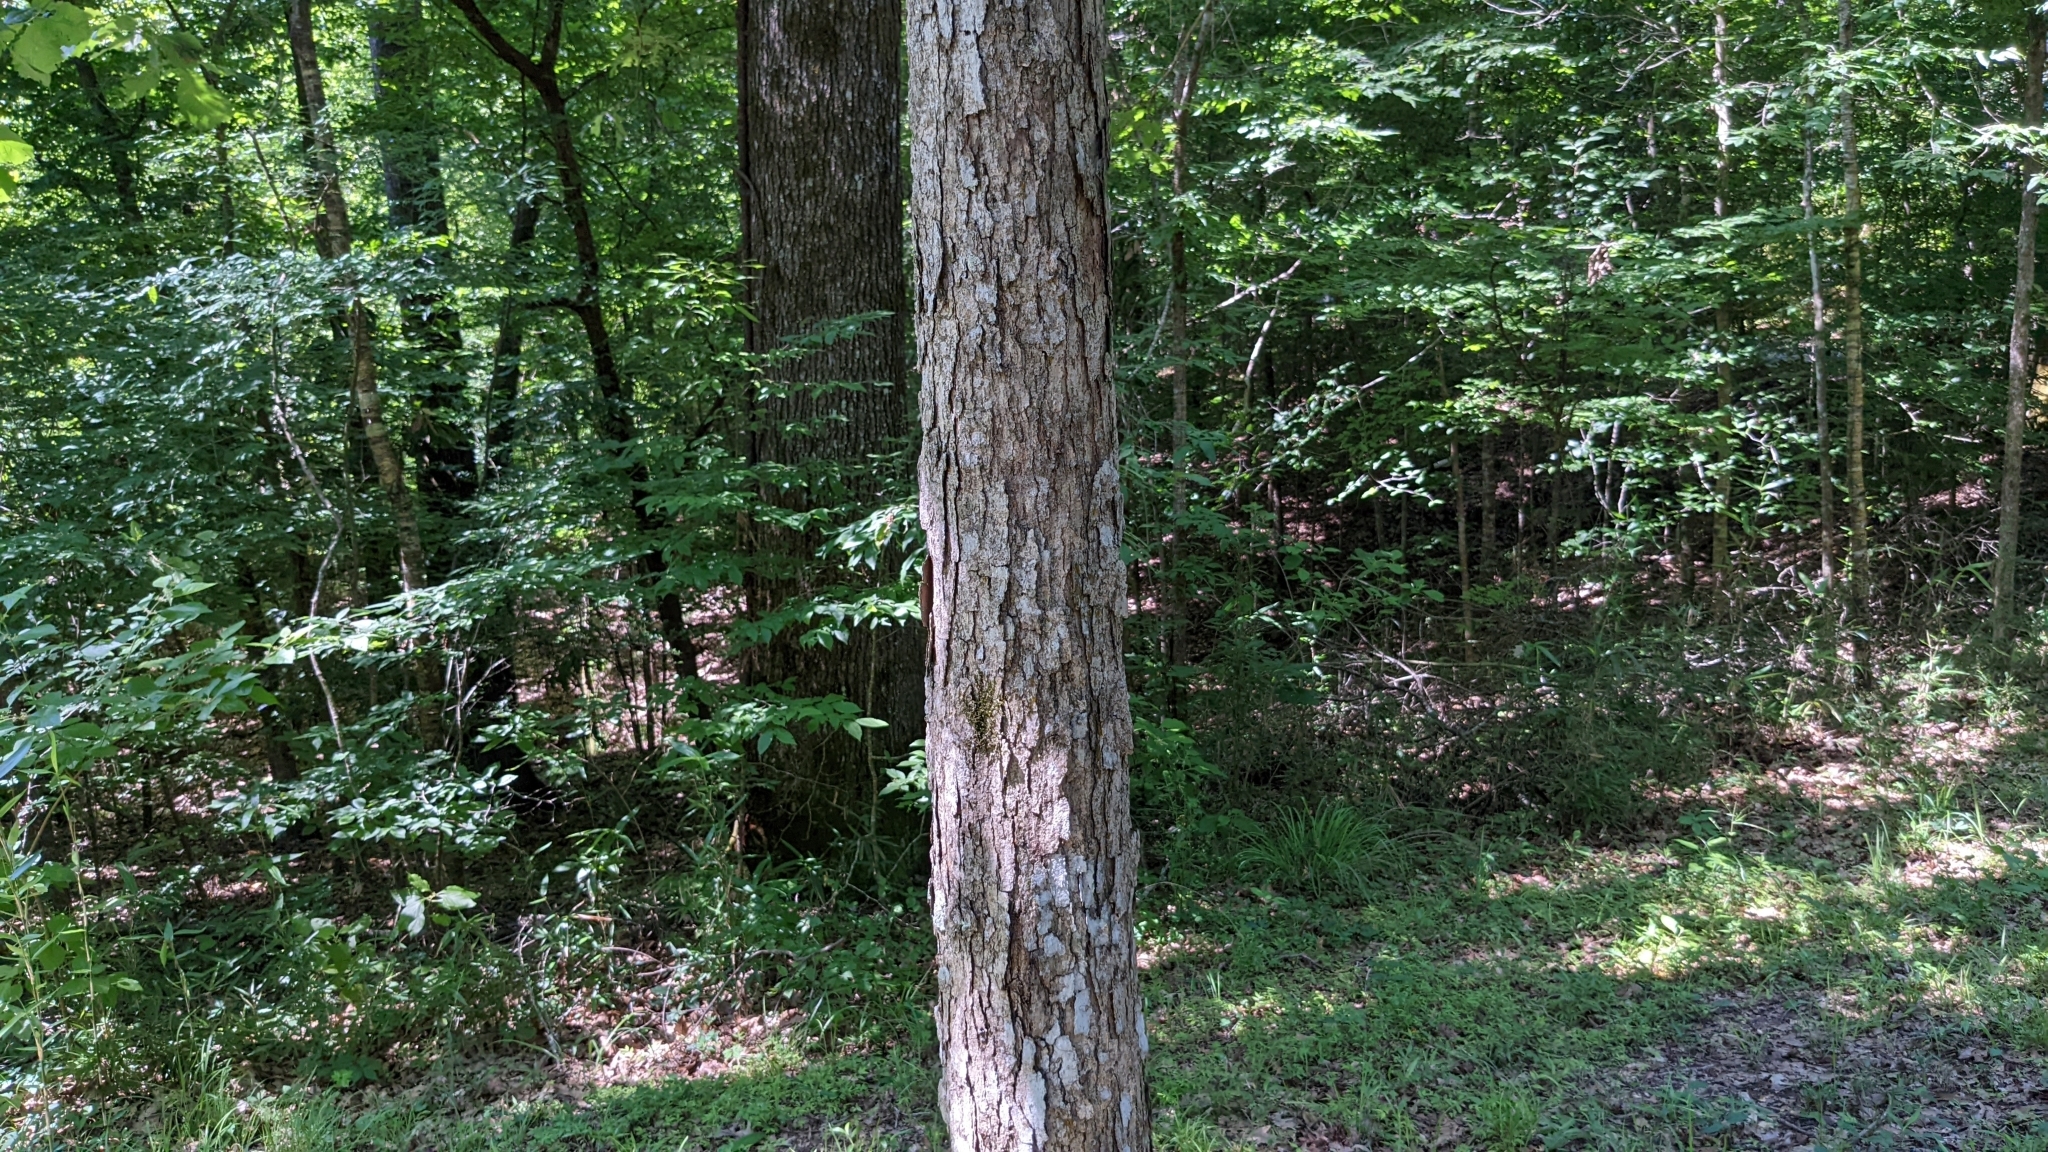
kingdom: Plantae
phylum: Tracheophyta
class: Magnoliopsida
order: Fagales
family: Fagaceae
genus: Quercus
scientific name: Quercus michauxii
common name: Swamp chestnut oak
